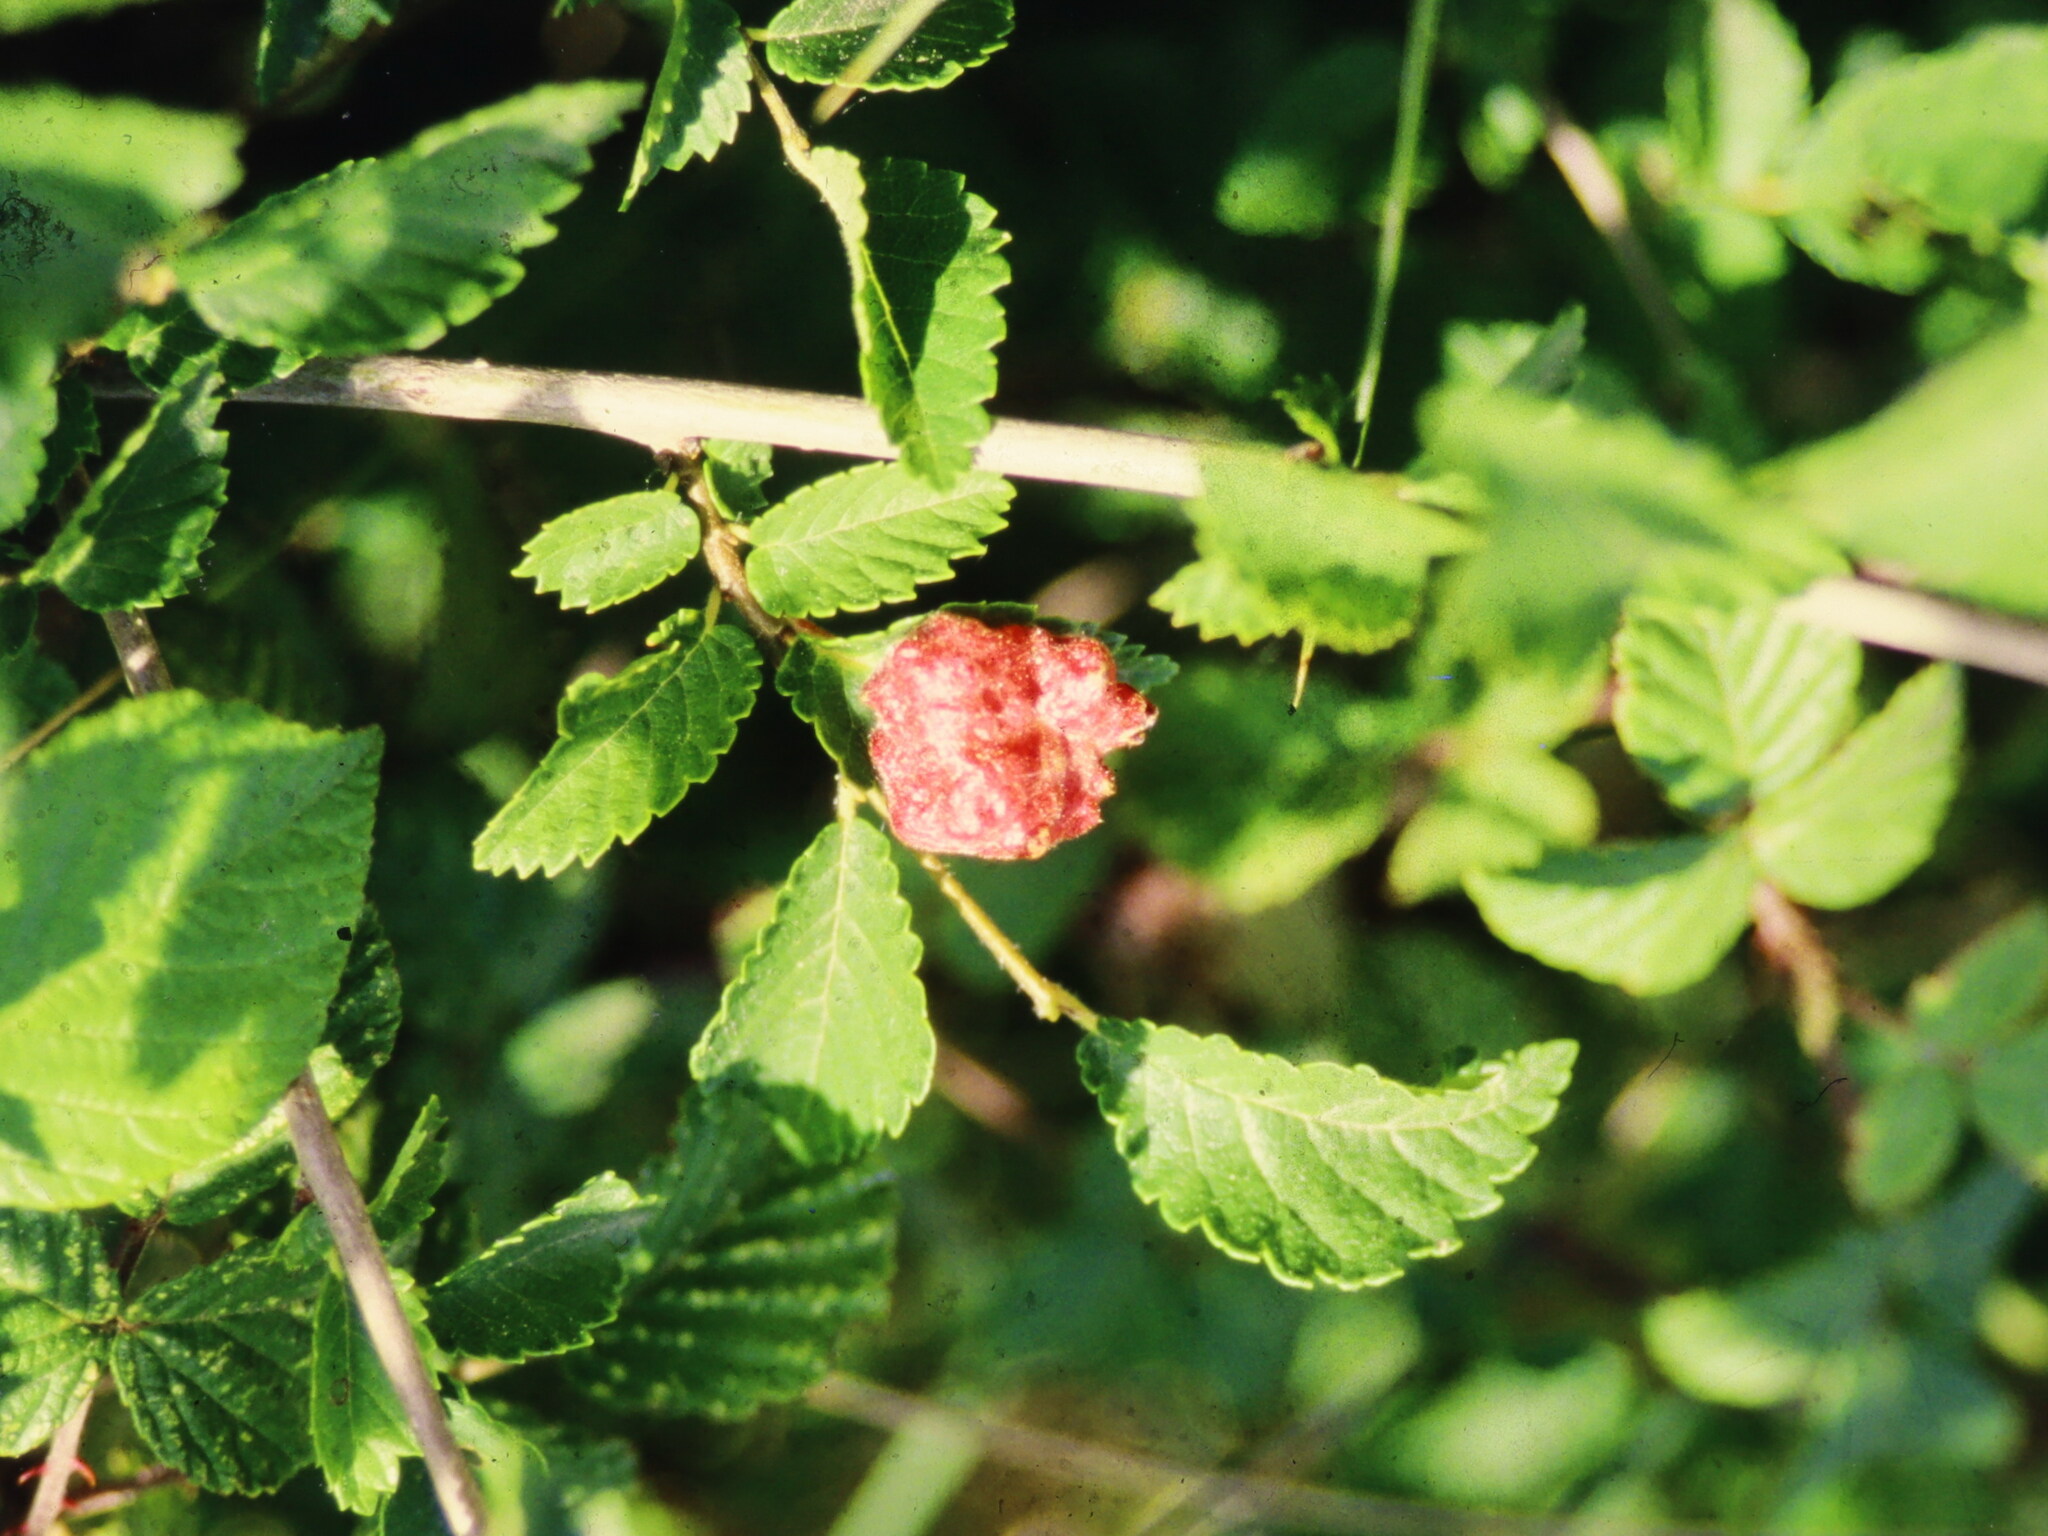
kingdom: Animalia
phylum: Arthropoda
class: Insecta
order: Hemiptera
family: Aphididae
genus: Tetraneura
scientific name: Tetraneura caerulescens
